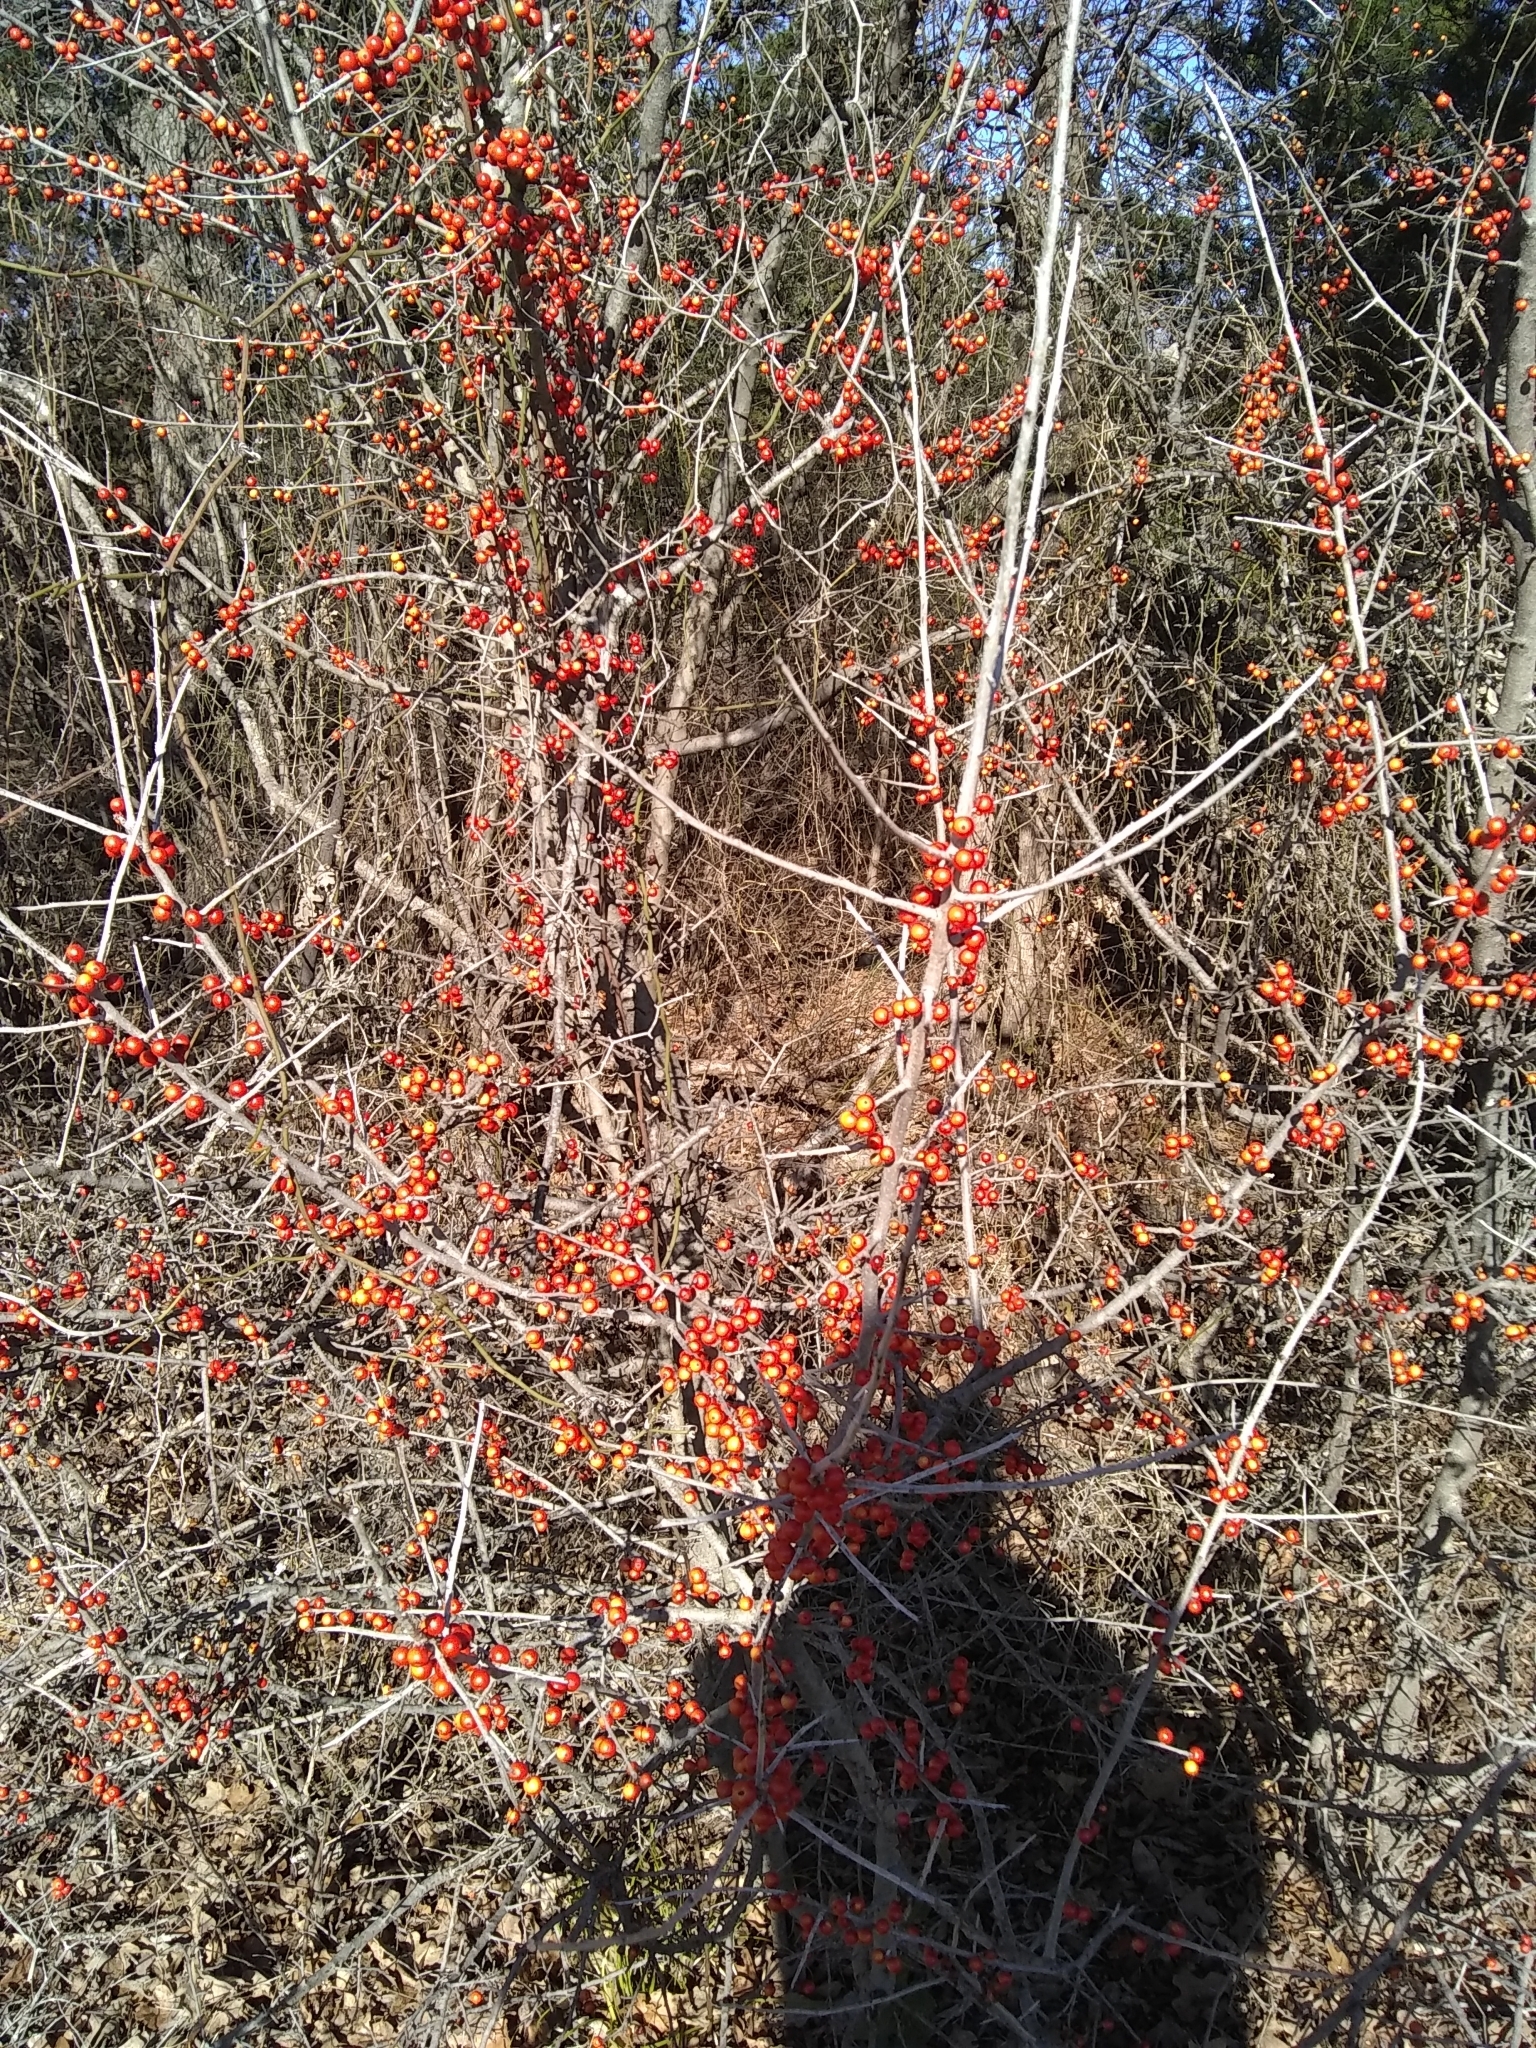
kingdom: Plantae
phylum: Tracheophyta
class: Magnoliopsida
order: Aquifoliales
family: Aquifoliaceae
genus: Ilex
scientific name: Ilex decidua
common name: Possum-haw
